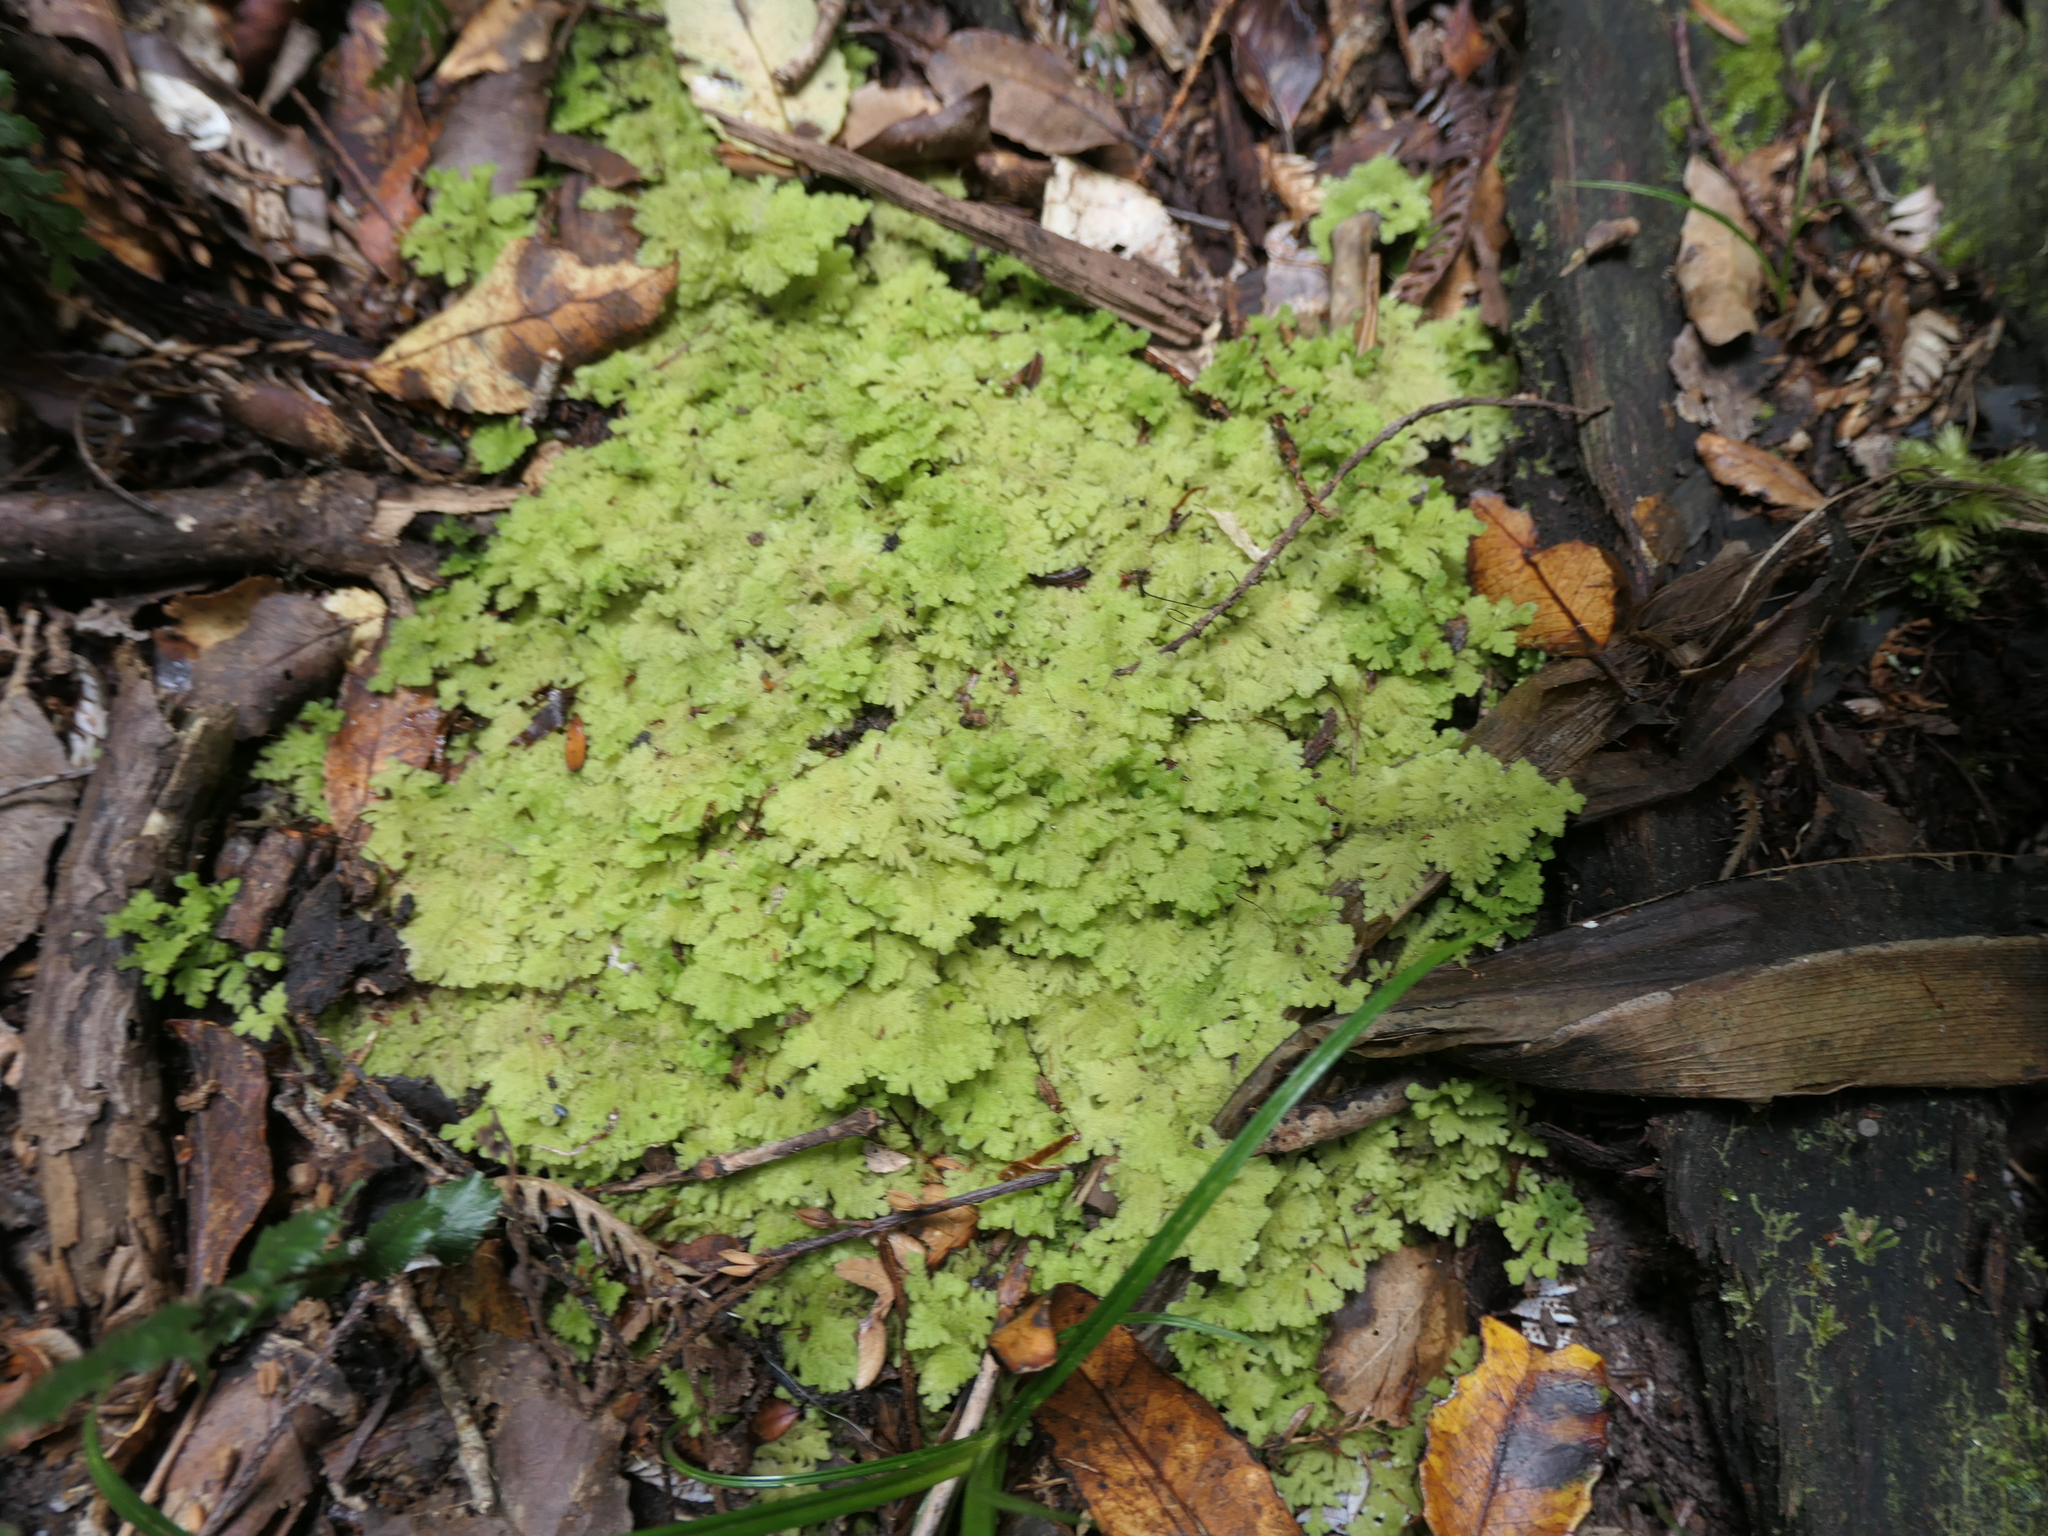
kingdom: Plantae
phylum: Marchantiophyta
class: Jungermanniopsida
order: Jungermanniales
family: Trichocoleaceae
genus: Trichocolea
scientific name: Trichocolea mollissima
